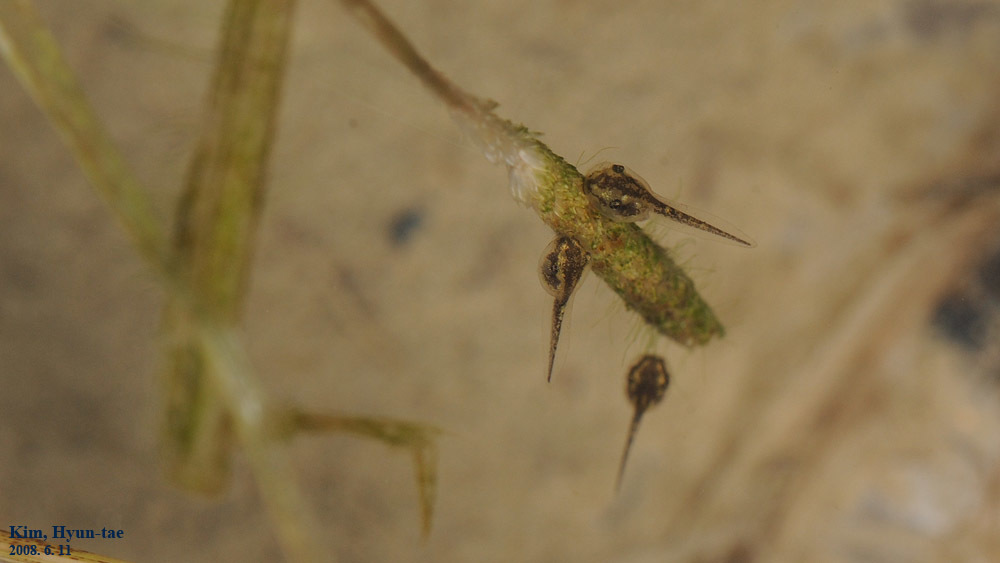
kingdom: Animalia
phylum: Chordata
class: Amphibia
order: Anura
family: Hylidae
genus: Dryophytes
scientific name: Dryophytes japonicus
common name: Japanese treefrog
